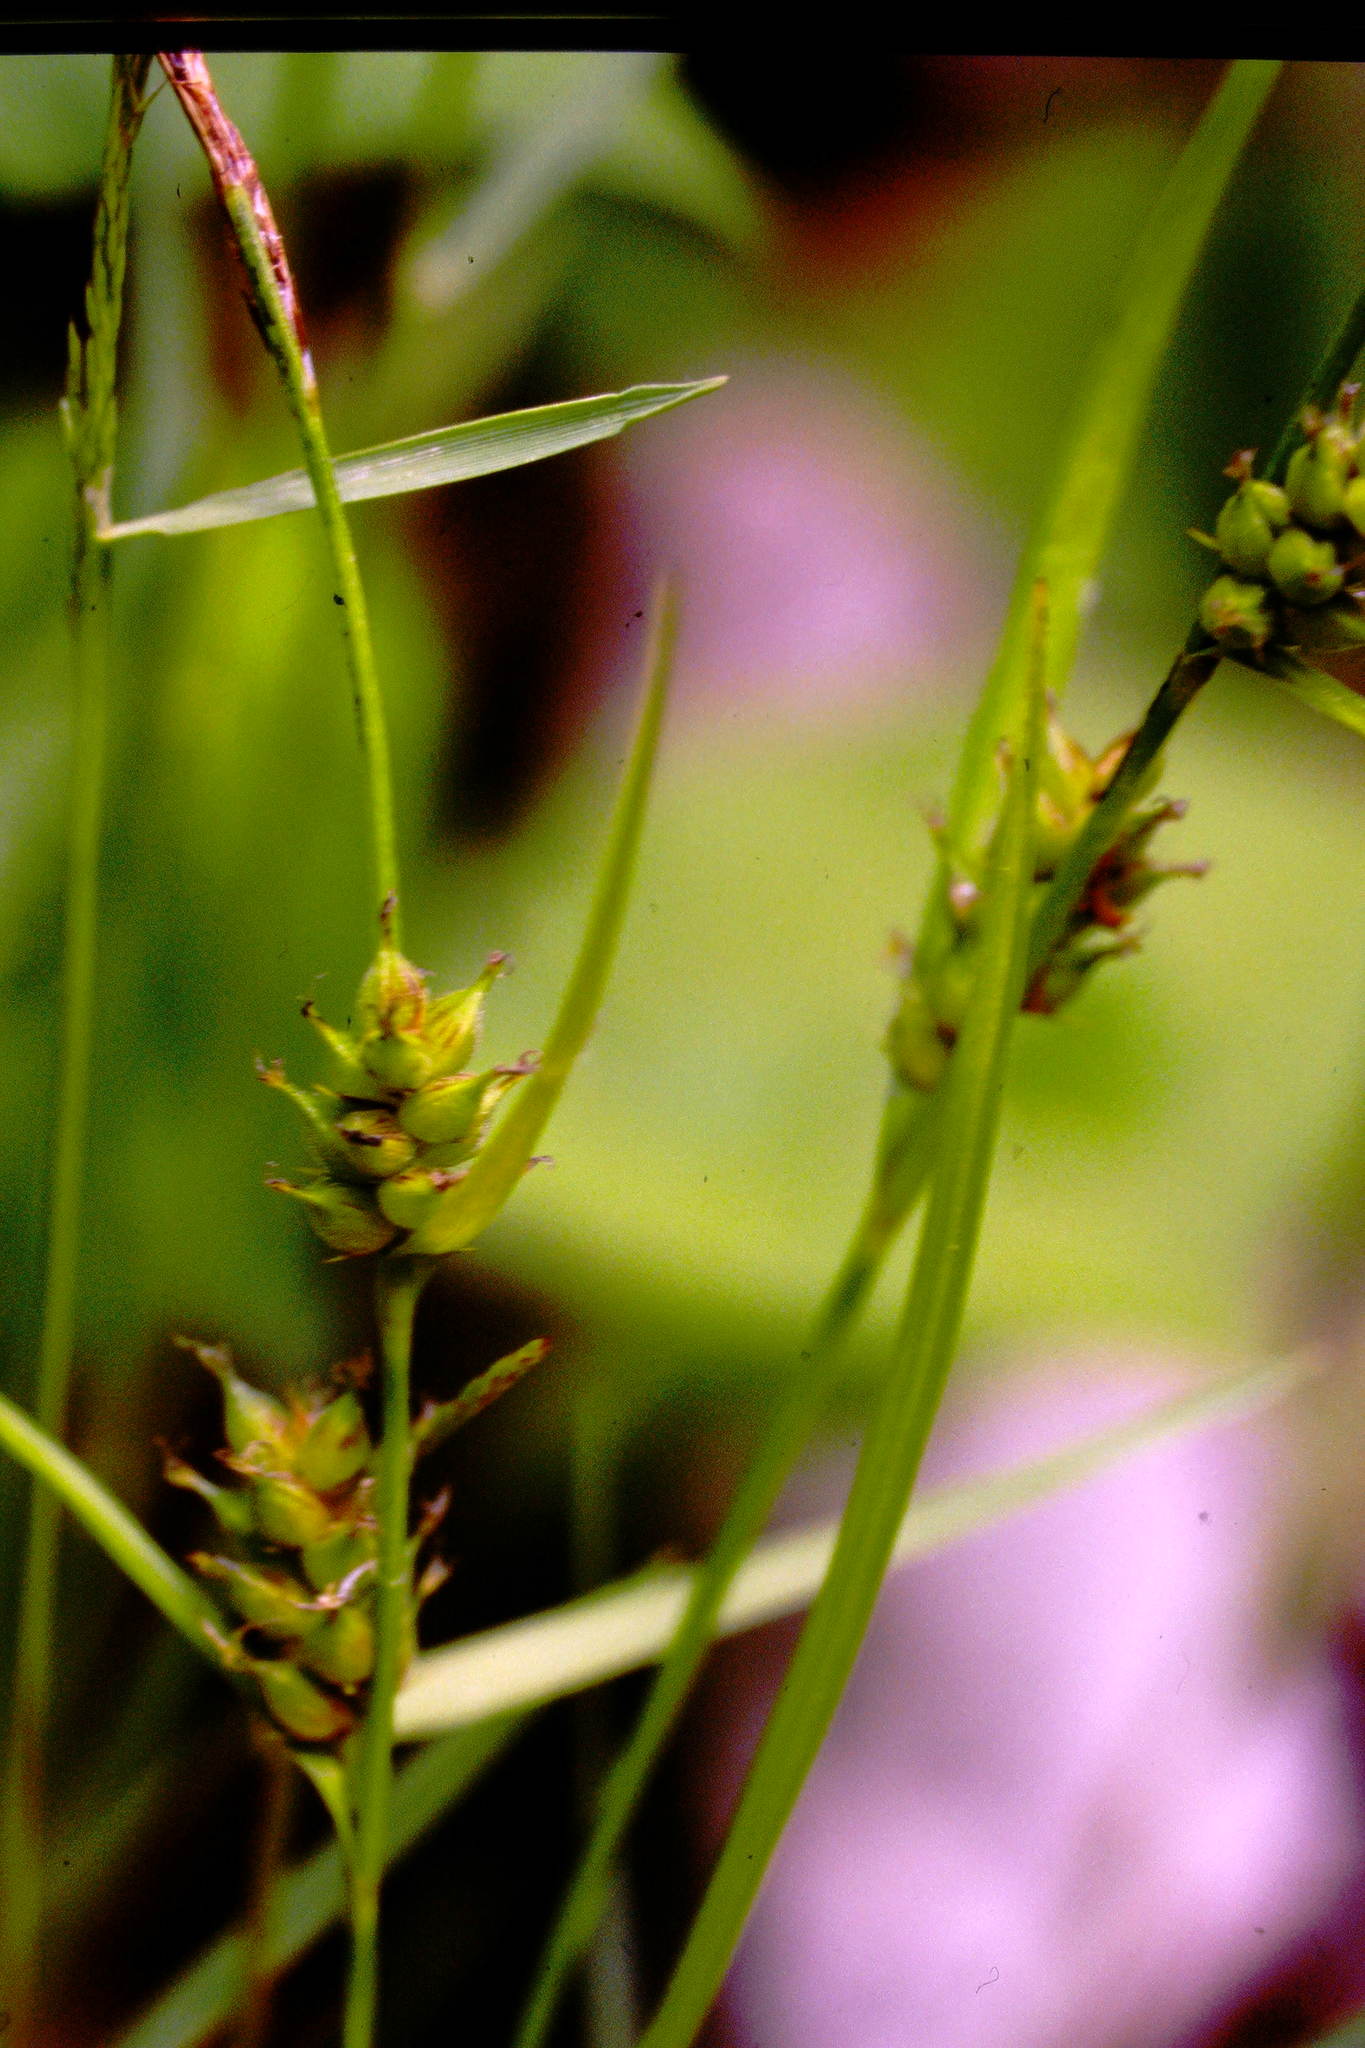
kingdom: Plantae
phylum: Tracheophyta
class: Liliopsida
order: Poales
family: Cyperaceae
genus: Carex
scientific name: Carex houghtoniana
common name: Houghton's sedge
